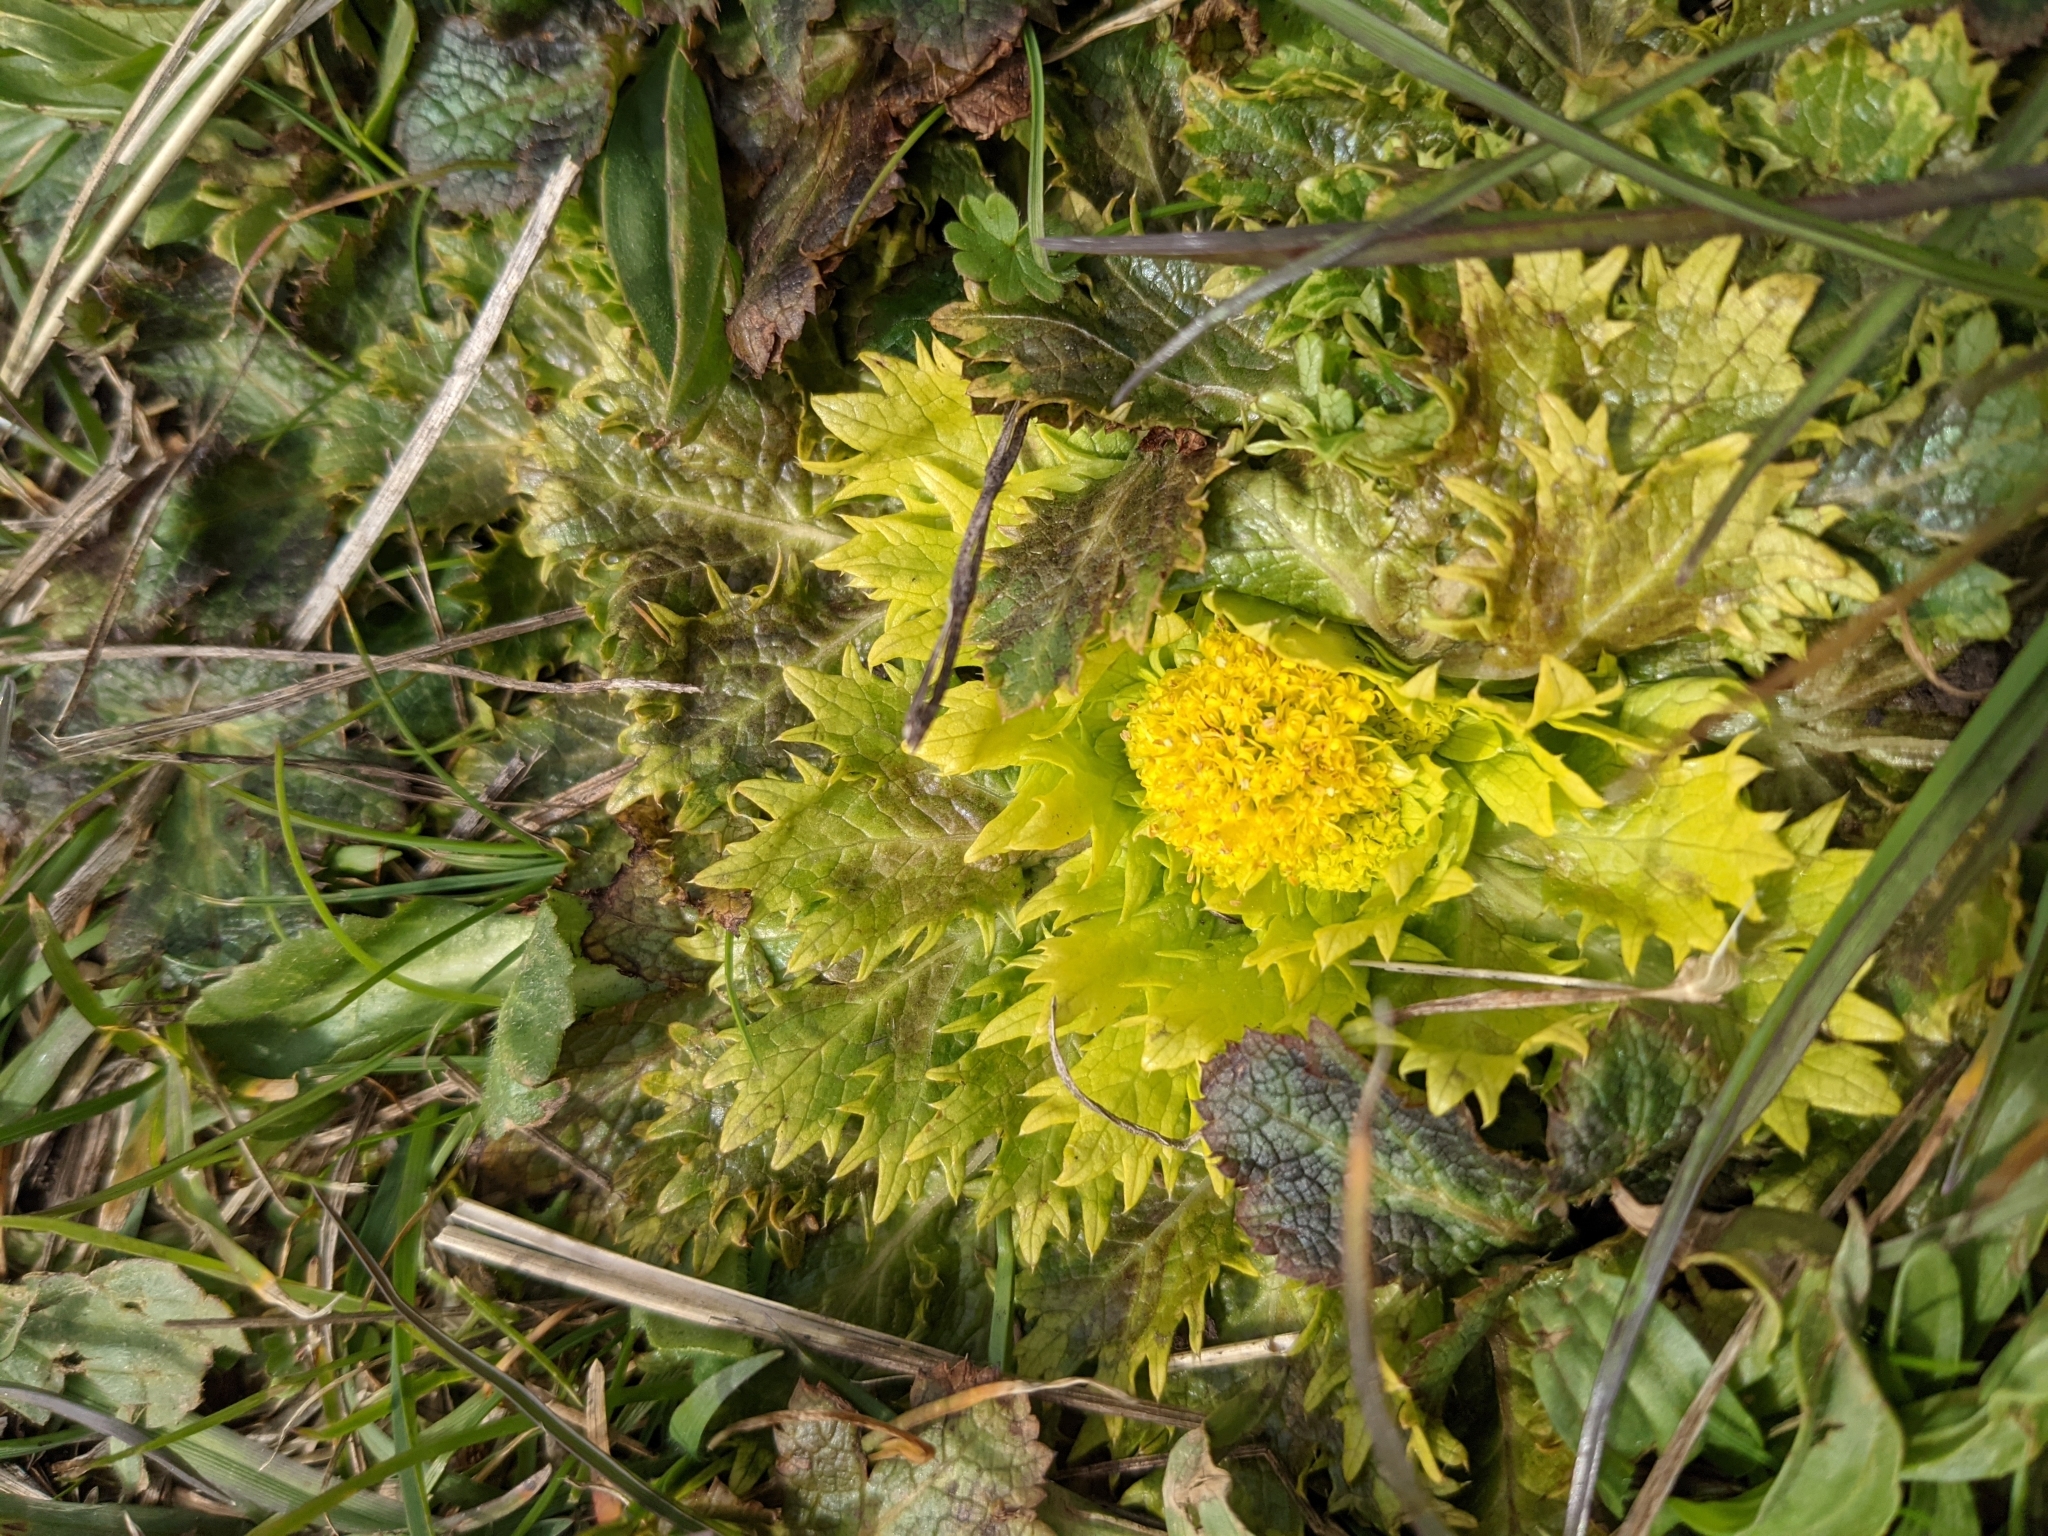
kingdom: Plantae
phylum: Tracheophyta
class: Magnoliopsida
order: Apiales
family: Apiaceae
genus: Sanicula
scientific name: Sanicula arctopoides
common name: Footsteps-of-spring
